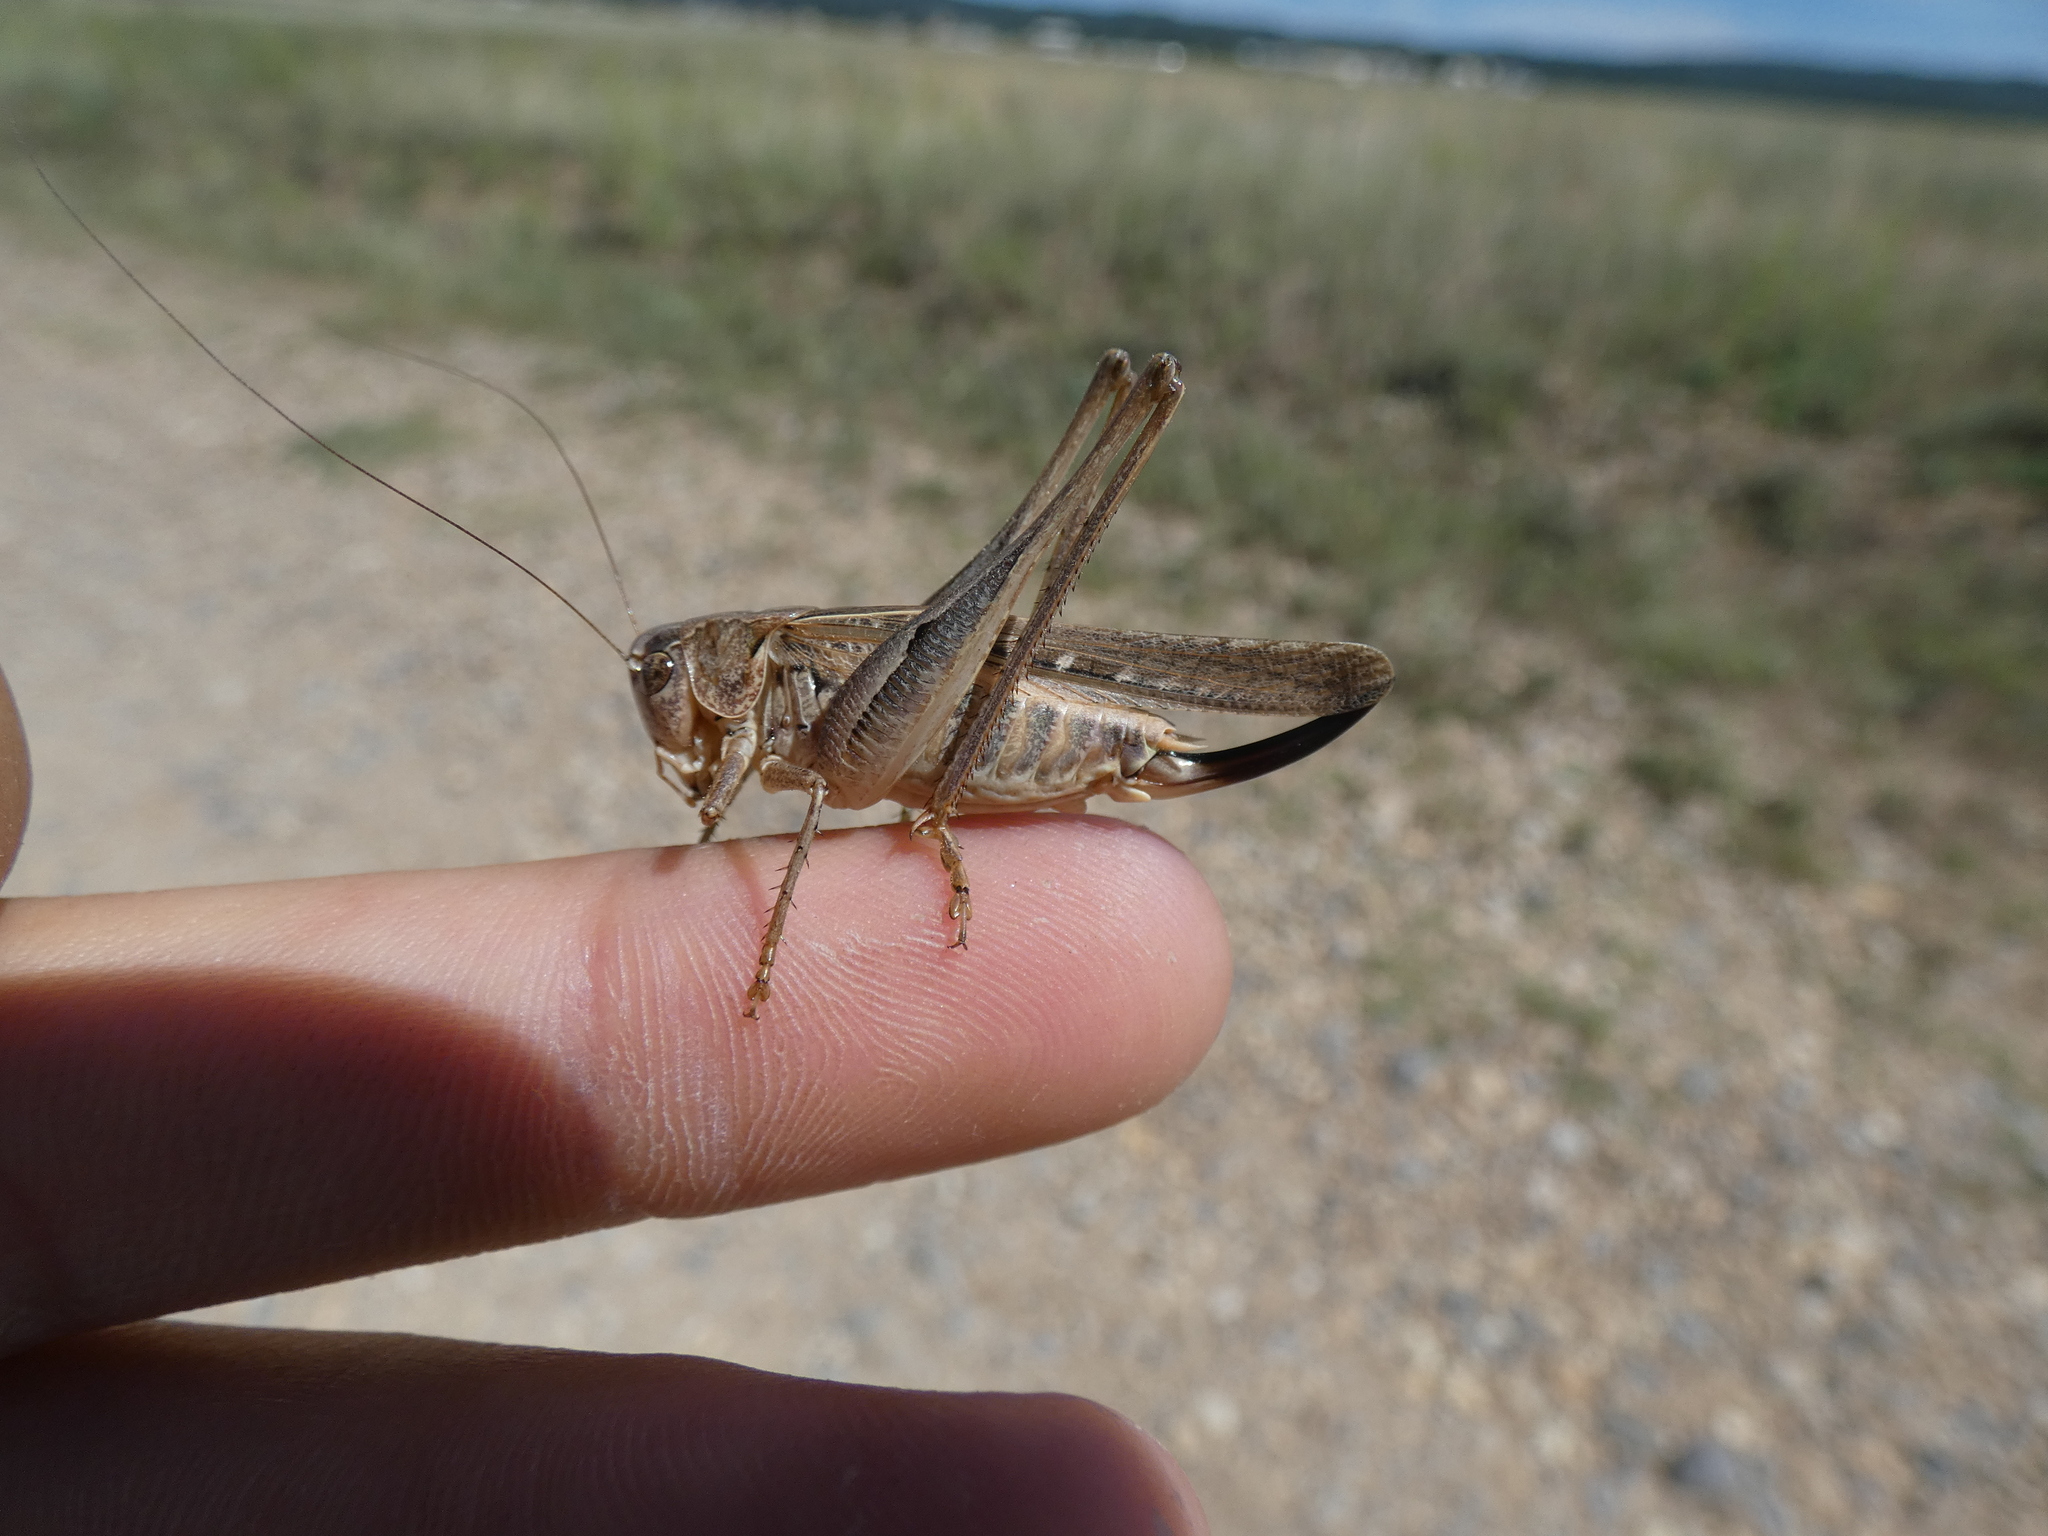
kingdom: Animalia
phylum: Arthropoda
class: Insecta
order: Orthoptera
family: Tettigoniidae
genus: Platycleis
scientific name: Platycleis affinis
